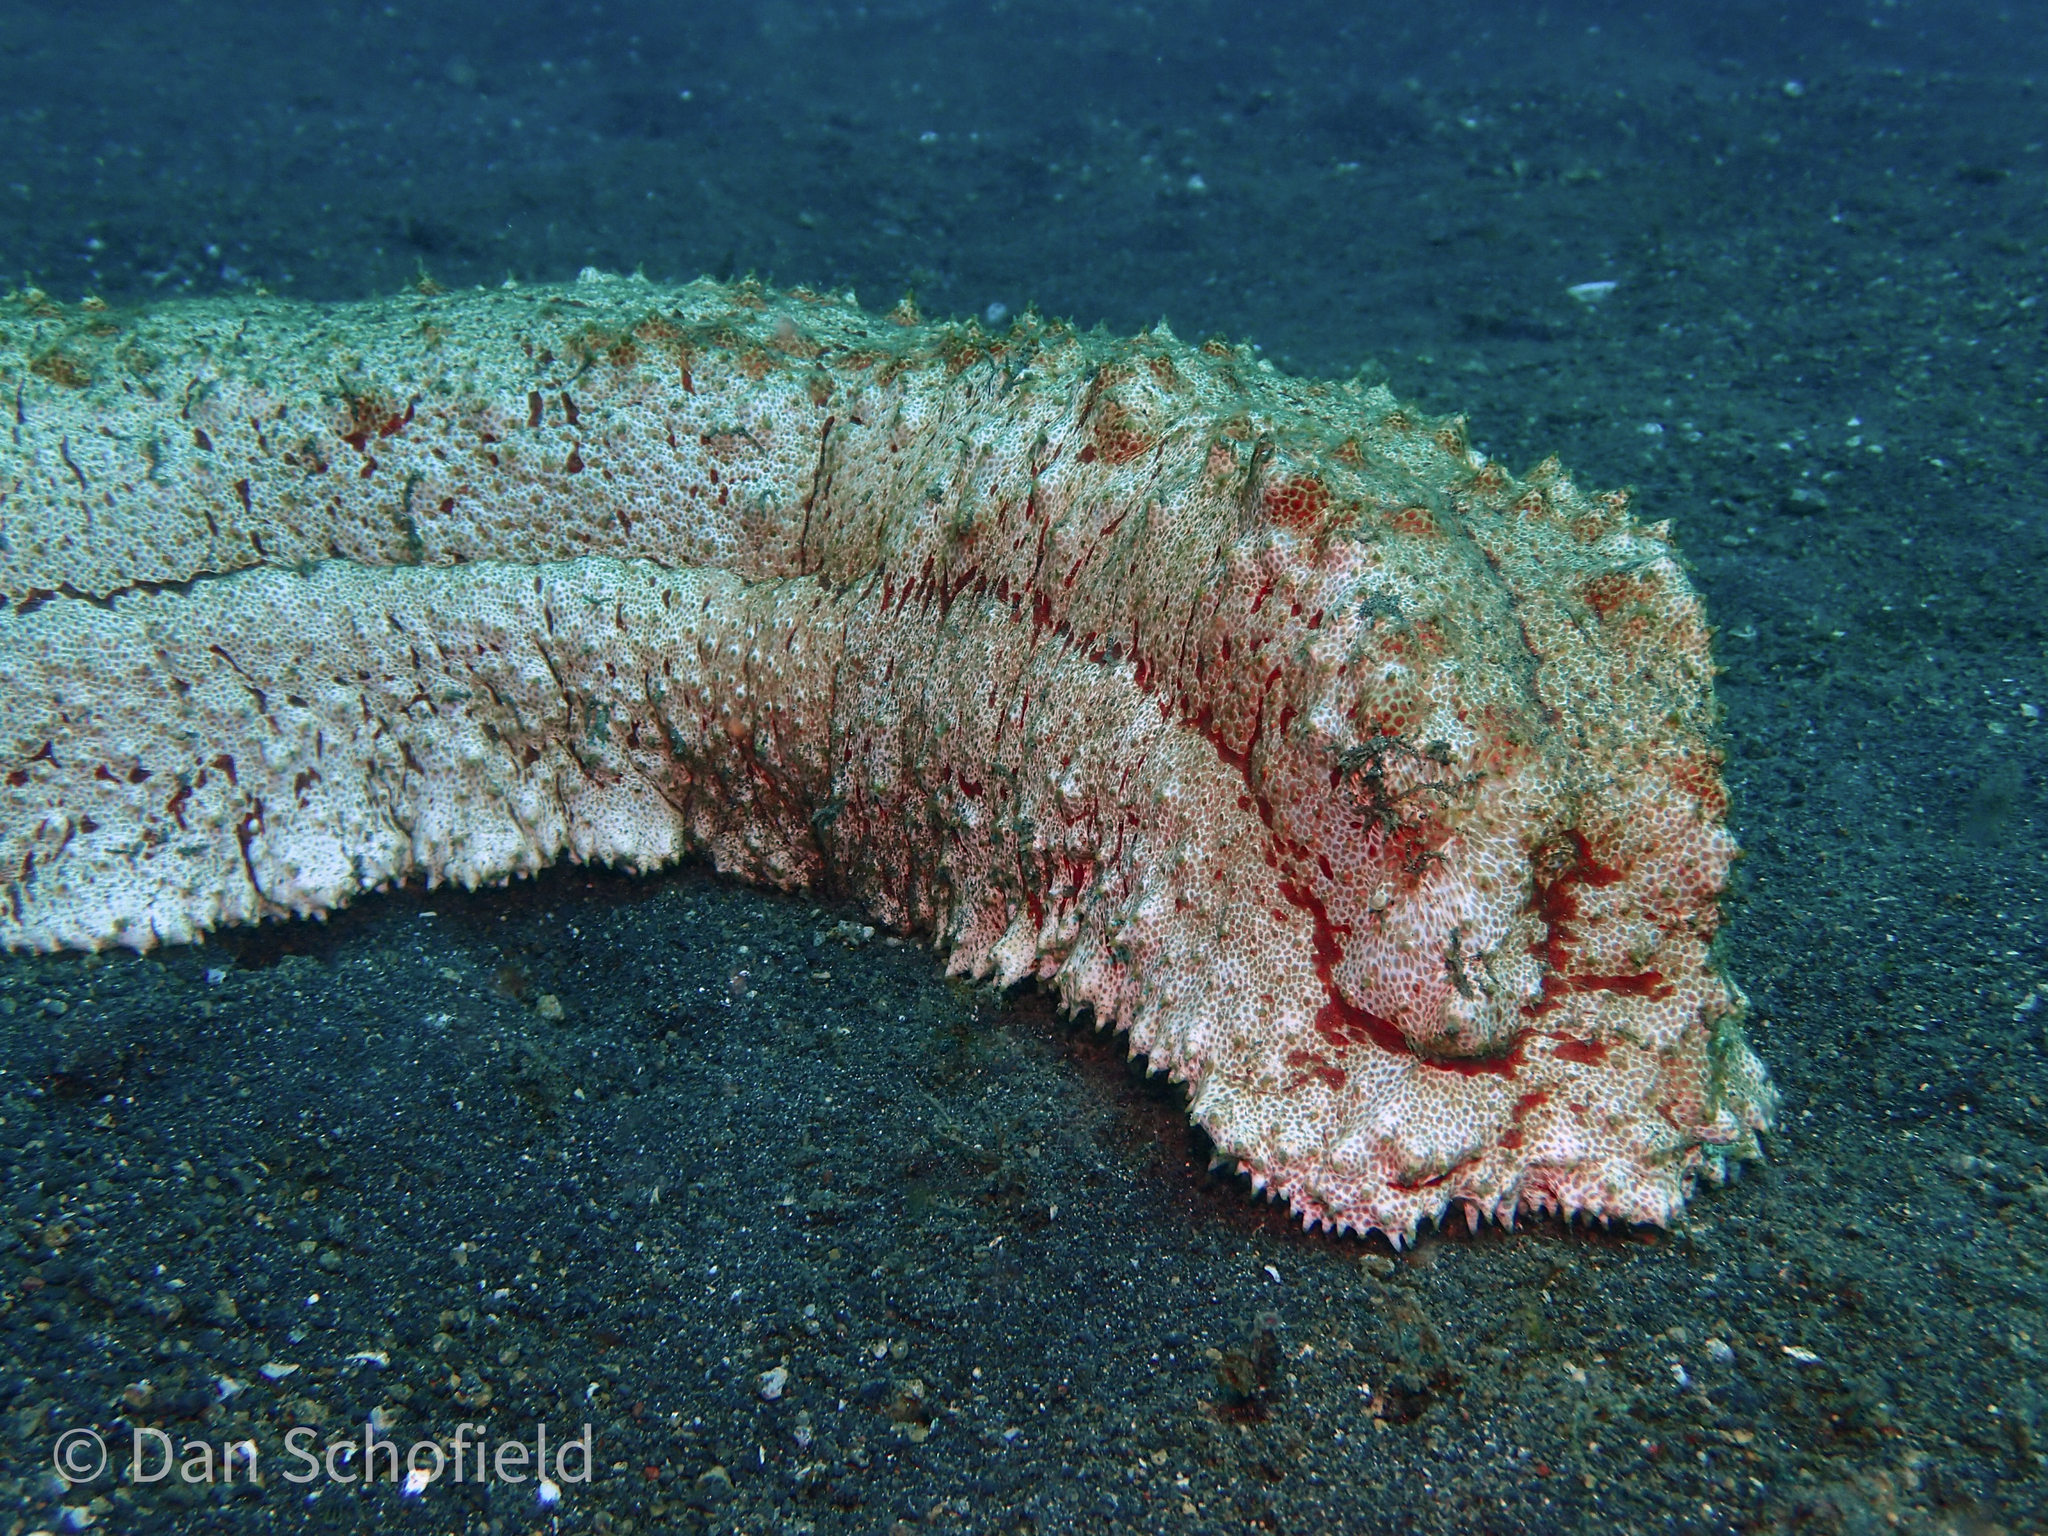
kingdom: Animalia
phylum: Echinodermata
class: Holothuroidea
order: Synallactida
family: Stichopodidae
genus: Thelenota
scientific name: Thelenota anax
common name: Amberfish
